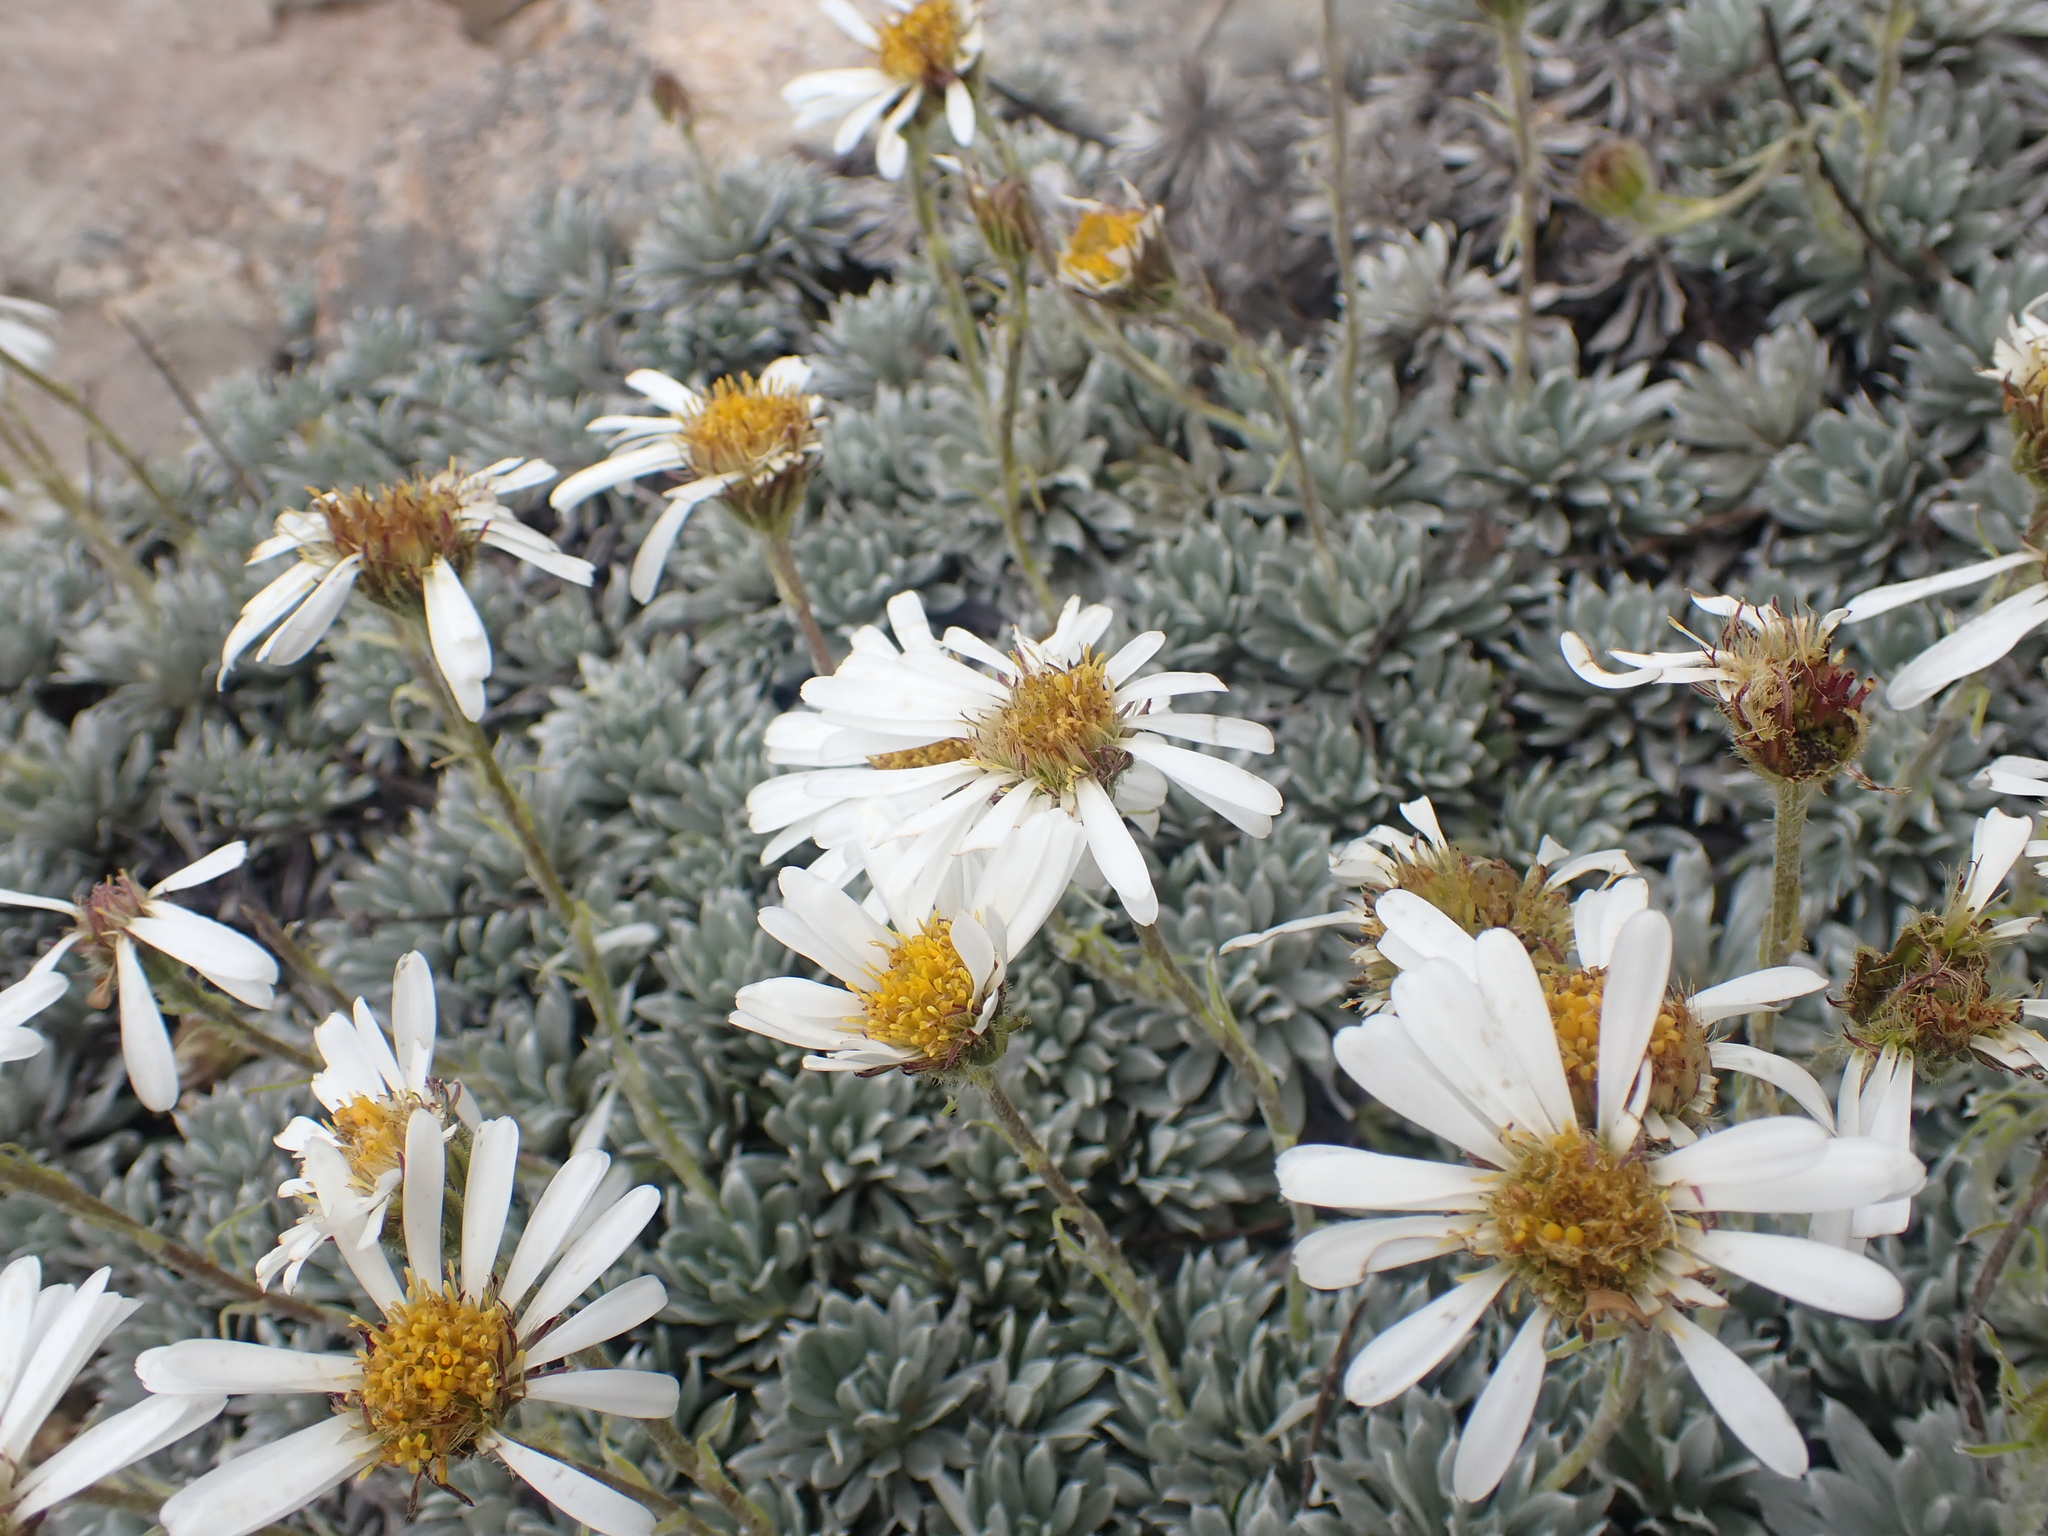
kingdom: Plantae
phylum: Tracheophyta
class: Magnoliopsida
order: Asterales
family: Asteraceae
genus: Celmisia
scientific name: Celmisia hectorii
